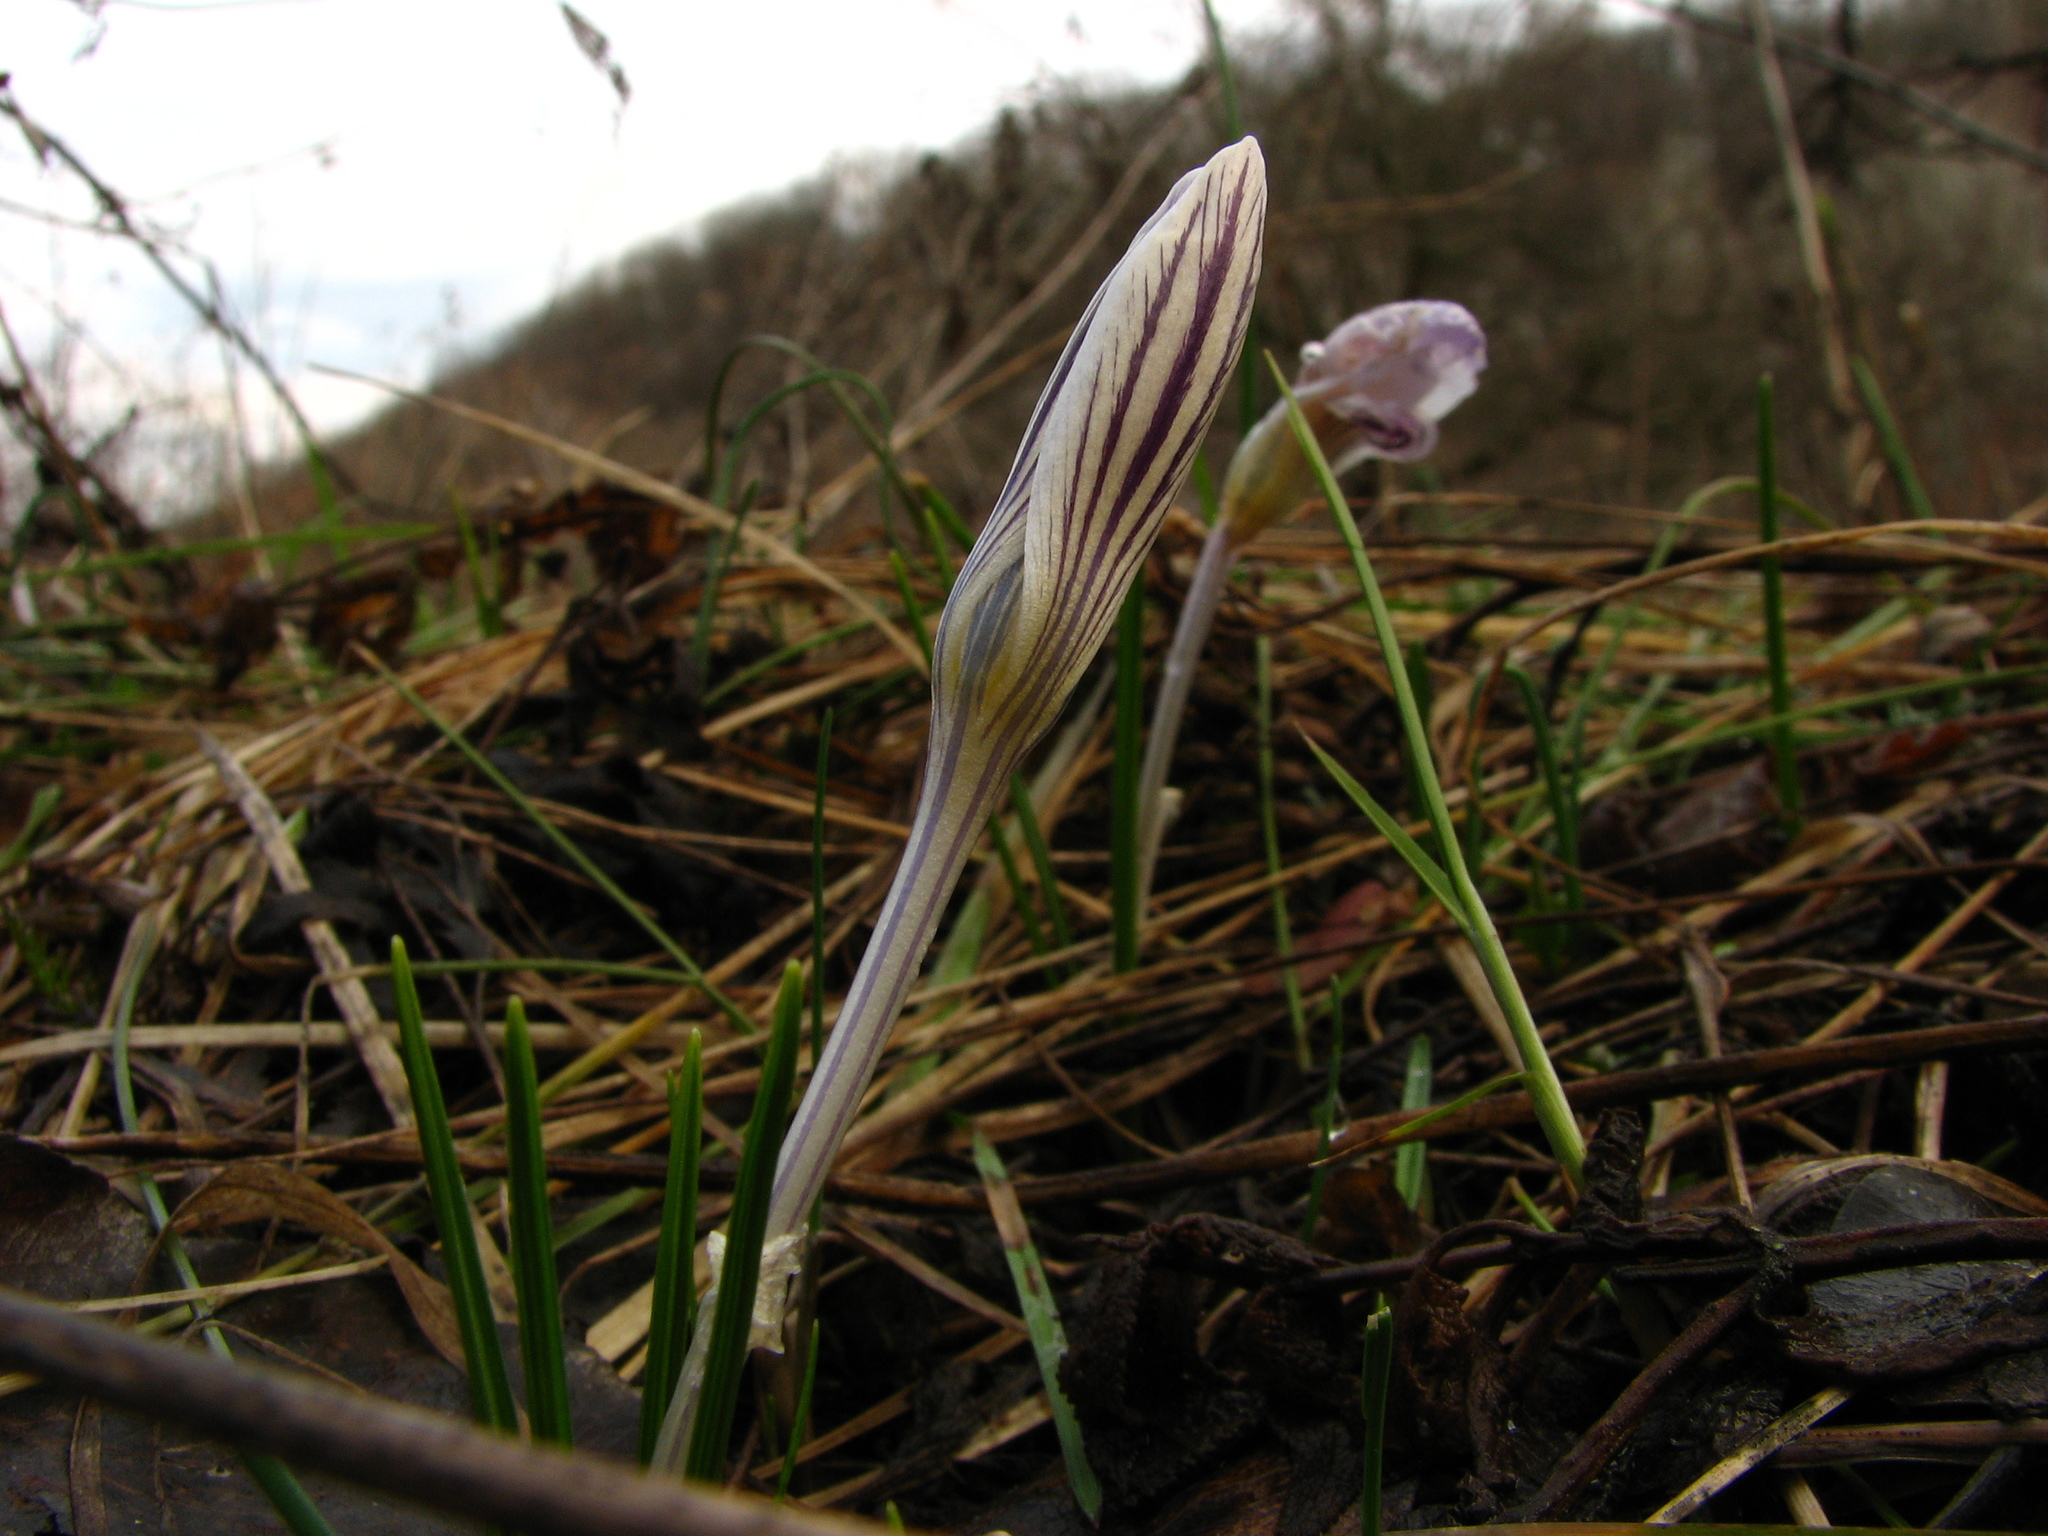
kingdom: Plantae
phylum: Tracheophyta
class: Liliopsida
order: Asparagales
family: Iridaceae
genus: Crocus
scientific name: Crocus reticulatus
